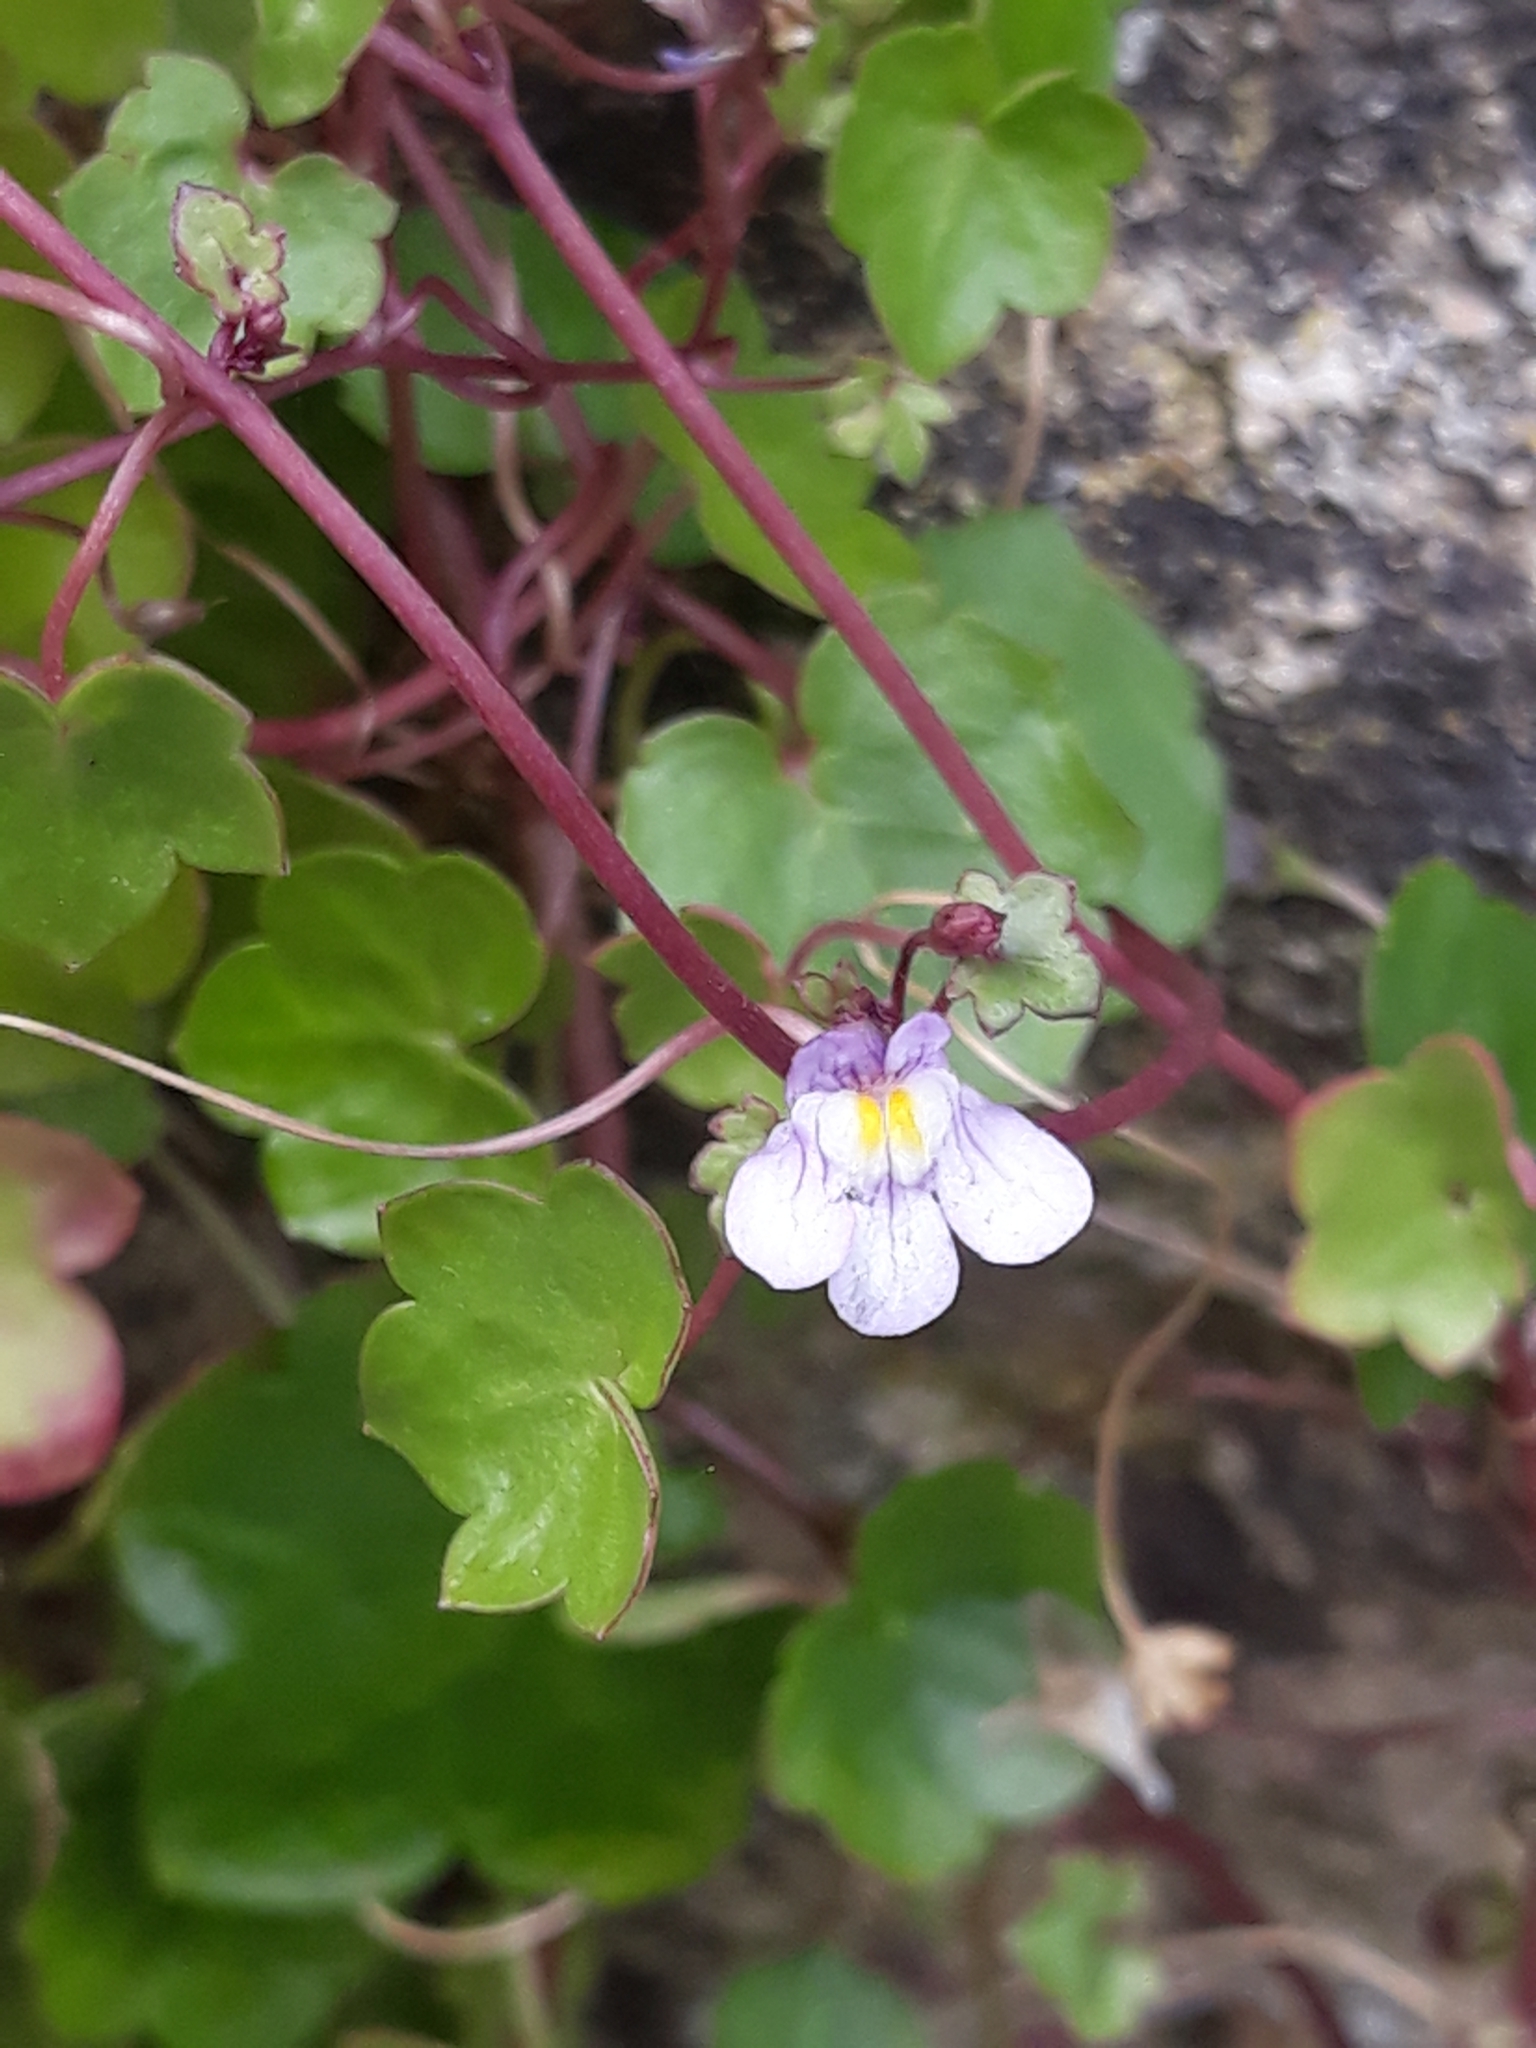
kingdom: Plantae
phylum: Tracheophyta
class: Magnoliopsida
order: Lamiales
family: Plantaginaceae
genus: Cymbalaria
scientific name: Cymbalaria muralis
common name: Ivy-leaved toadflax
